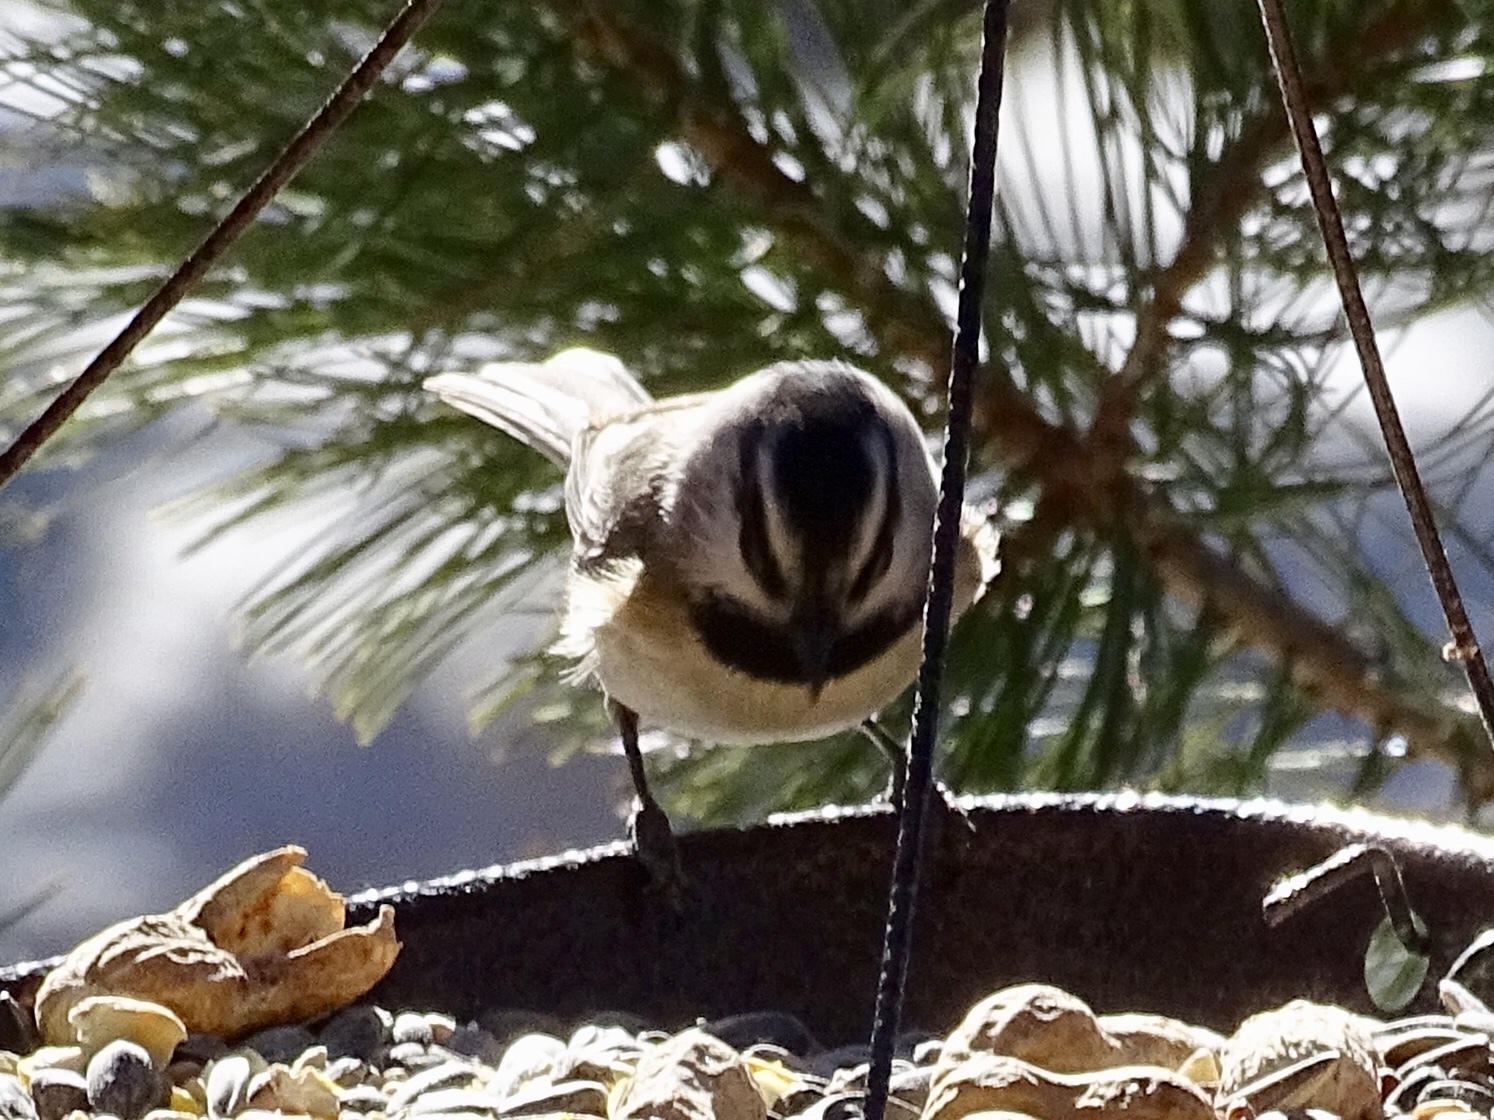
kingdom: Animalia
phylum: Chordata
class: Aves
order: Passeriformes
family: Paridae
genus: Poecile
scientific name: Poecile gambeli
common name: Mountain chickadee
